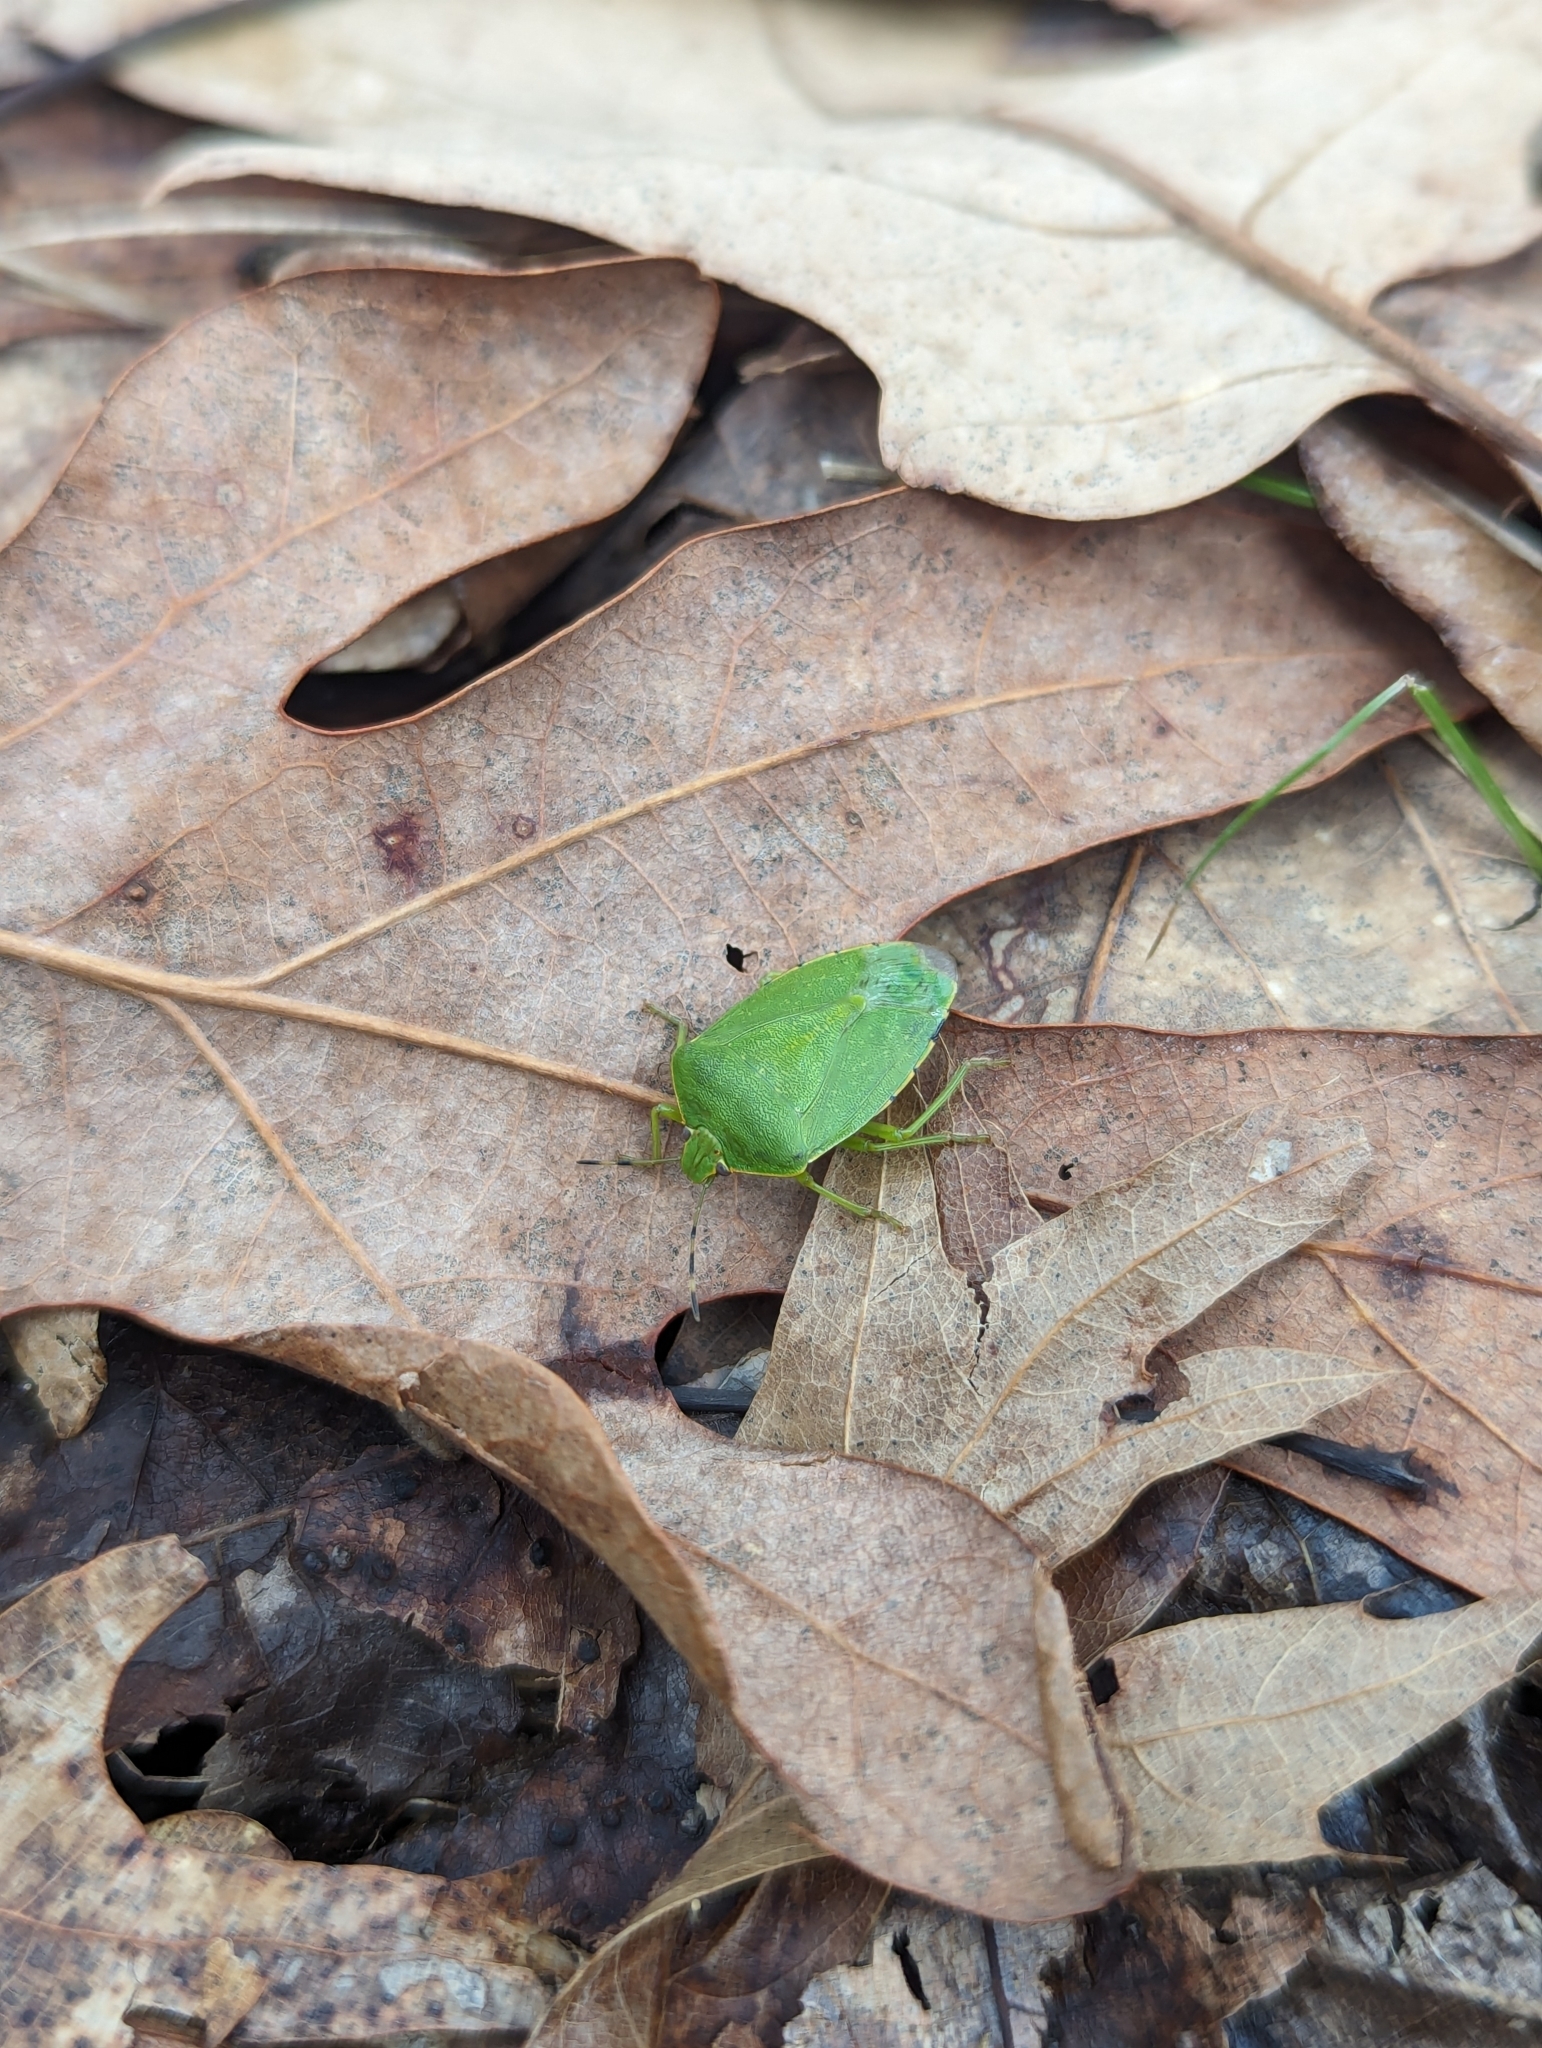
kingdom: Animalia
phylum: Arthropoda
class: Insecta
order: Hemiptera
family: Pentatomidae
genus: Chinavia
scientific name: Chinavia hilaris
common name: Green stink bug
